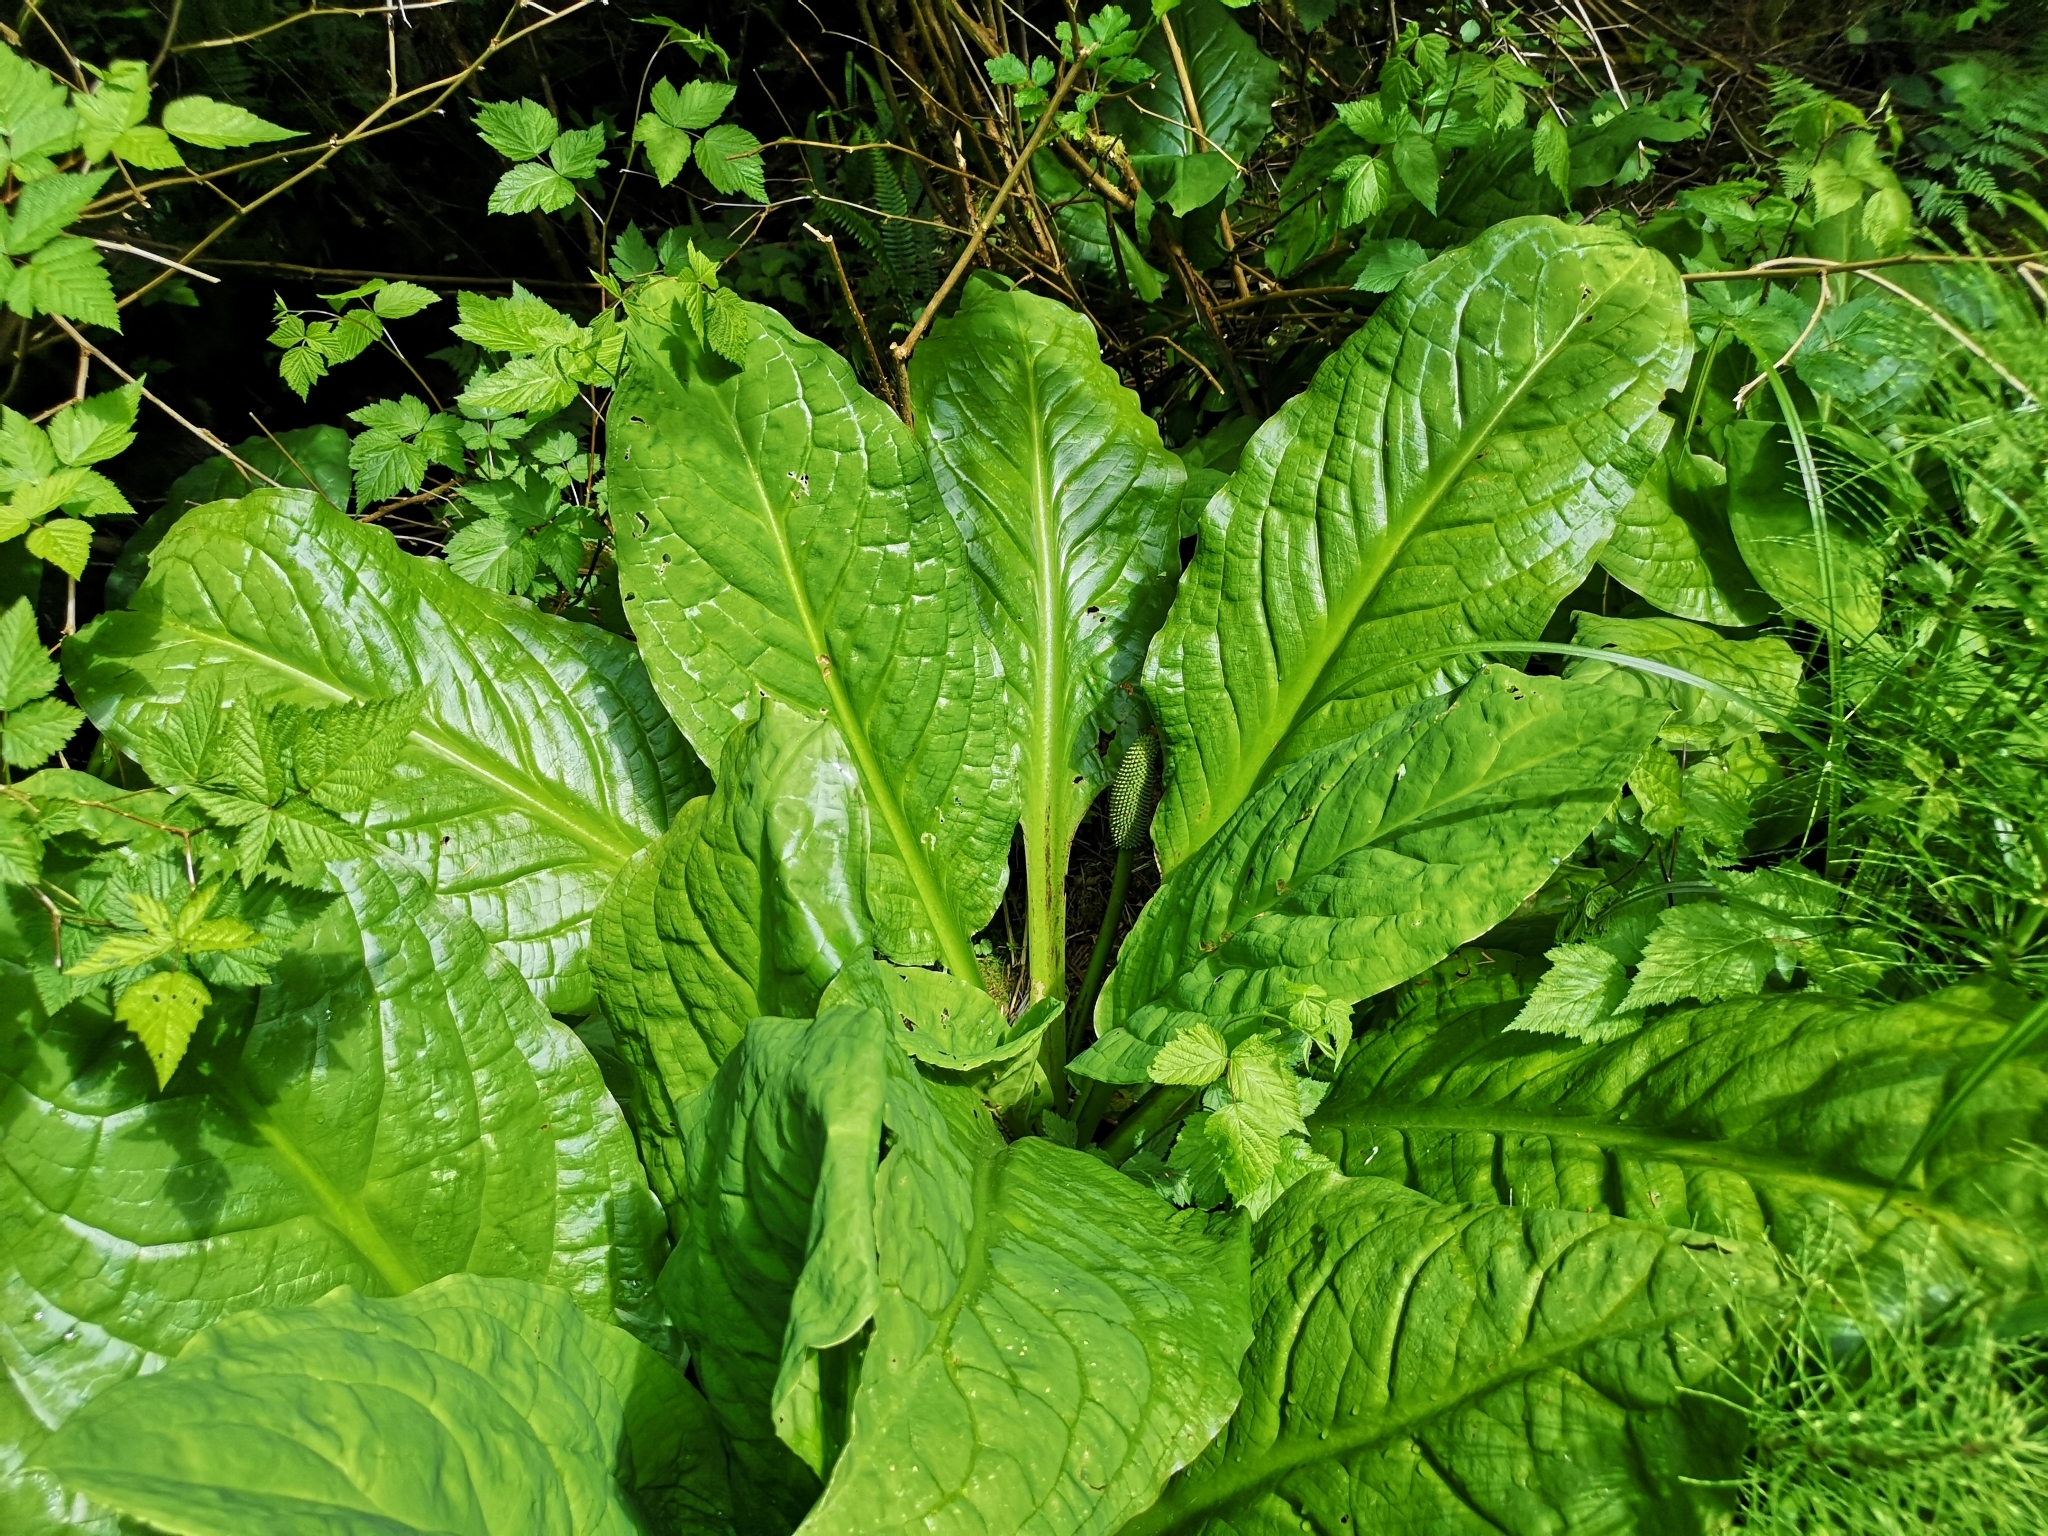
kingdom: Plantae
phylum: Tracheophyta
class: Liliopsida
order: Alismatales
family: Araceae
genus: Lysichiton
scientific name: Lysichiton americanus
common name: American skunk cabbage
